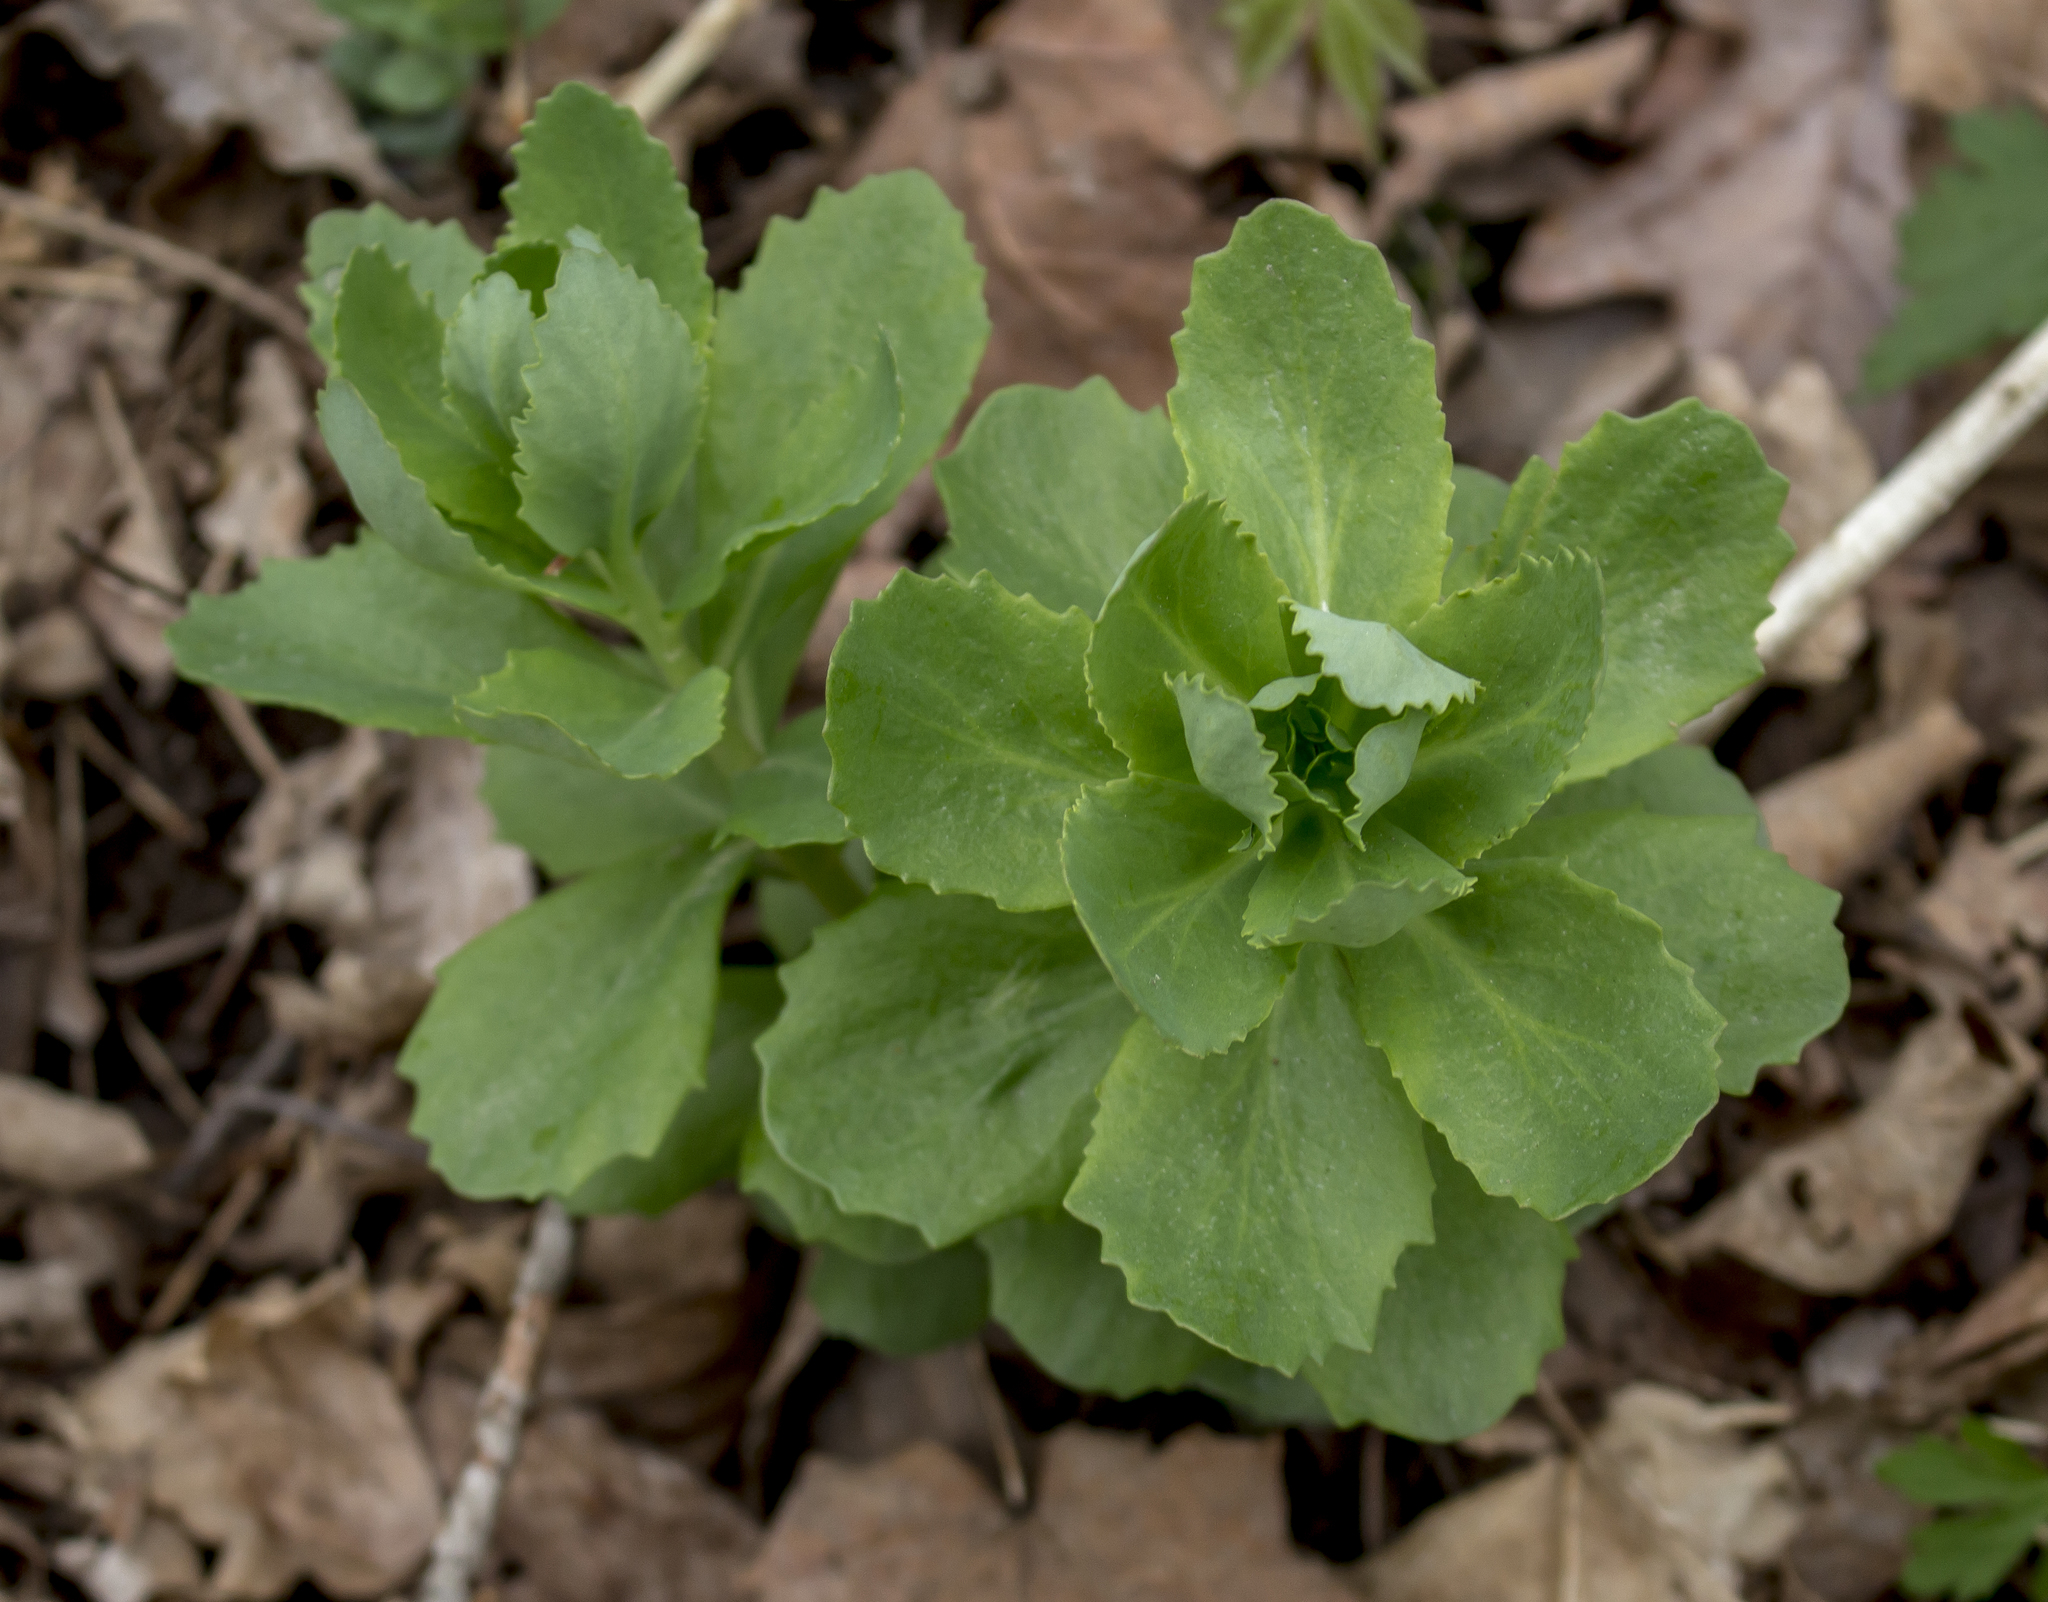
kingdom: Plantae
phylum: Tracheophyta
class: Magnoliopsida
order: Saxifragales
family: Crassulaceae
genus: Hylotelephium
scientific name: Hylotelephium telephium
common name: Live-forever
